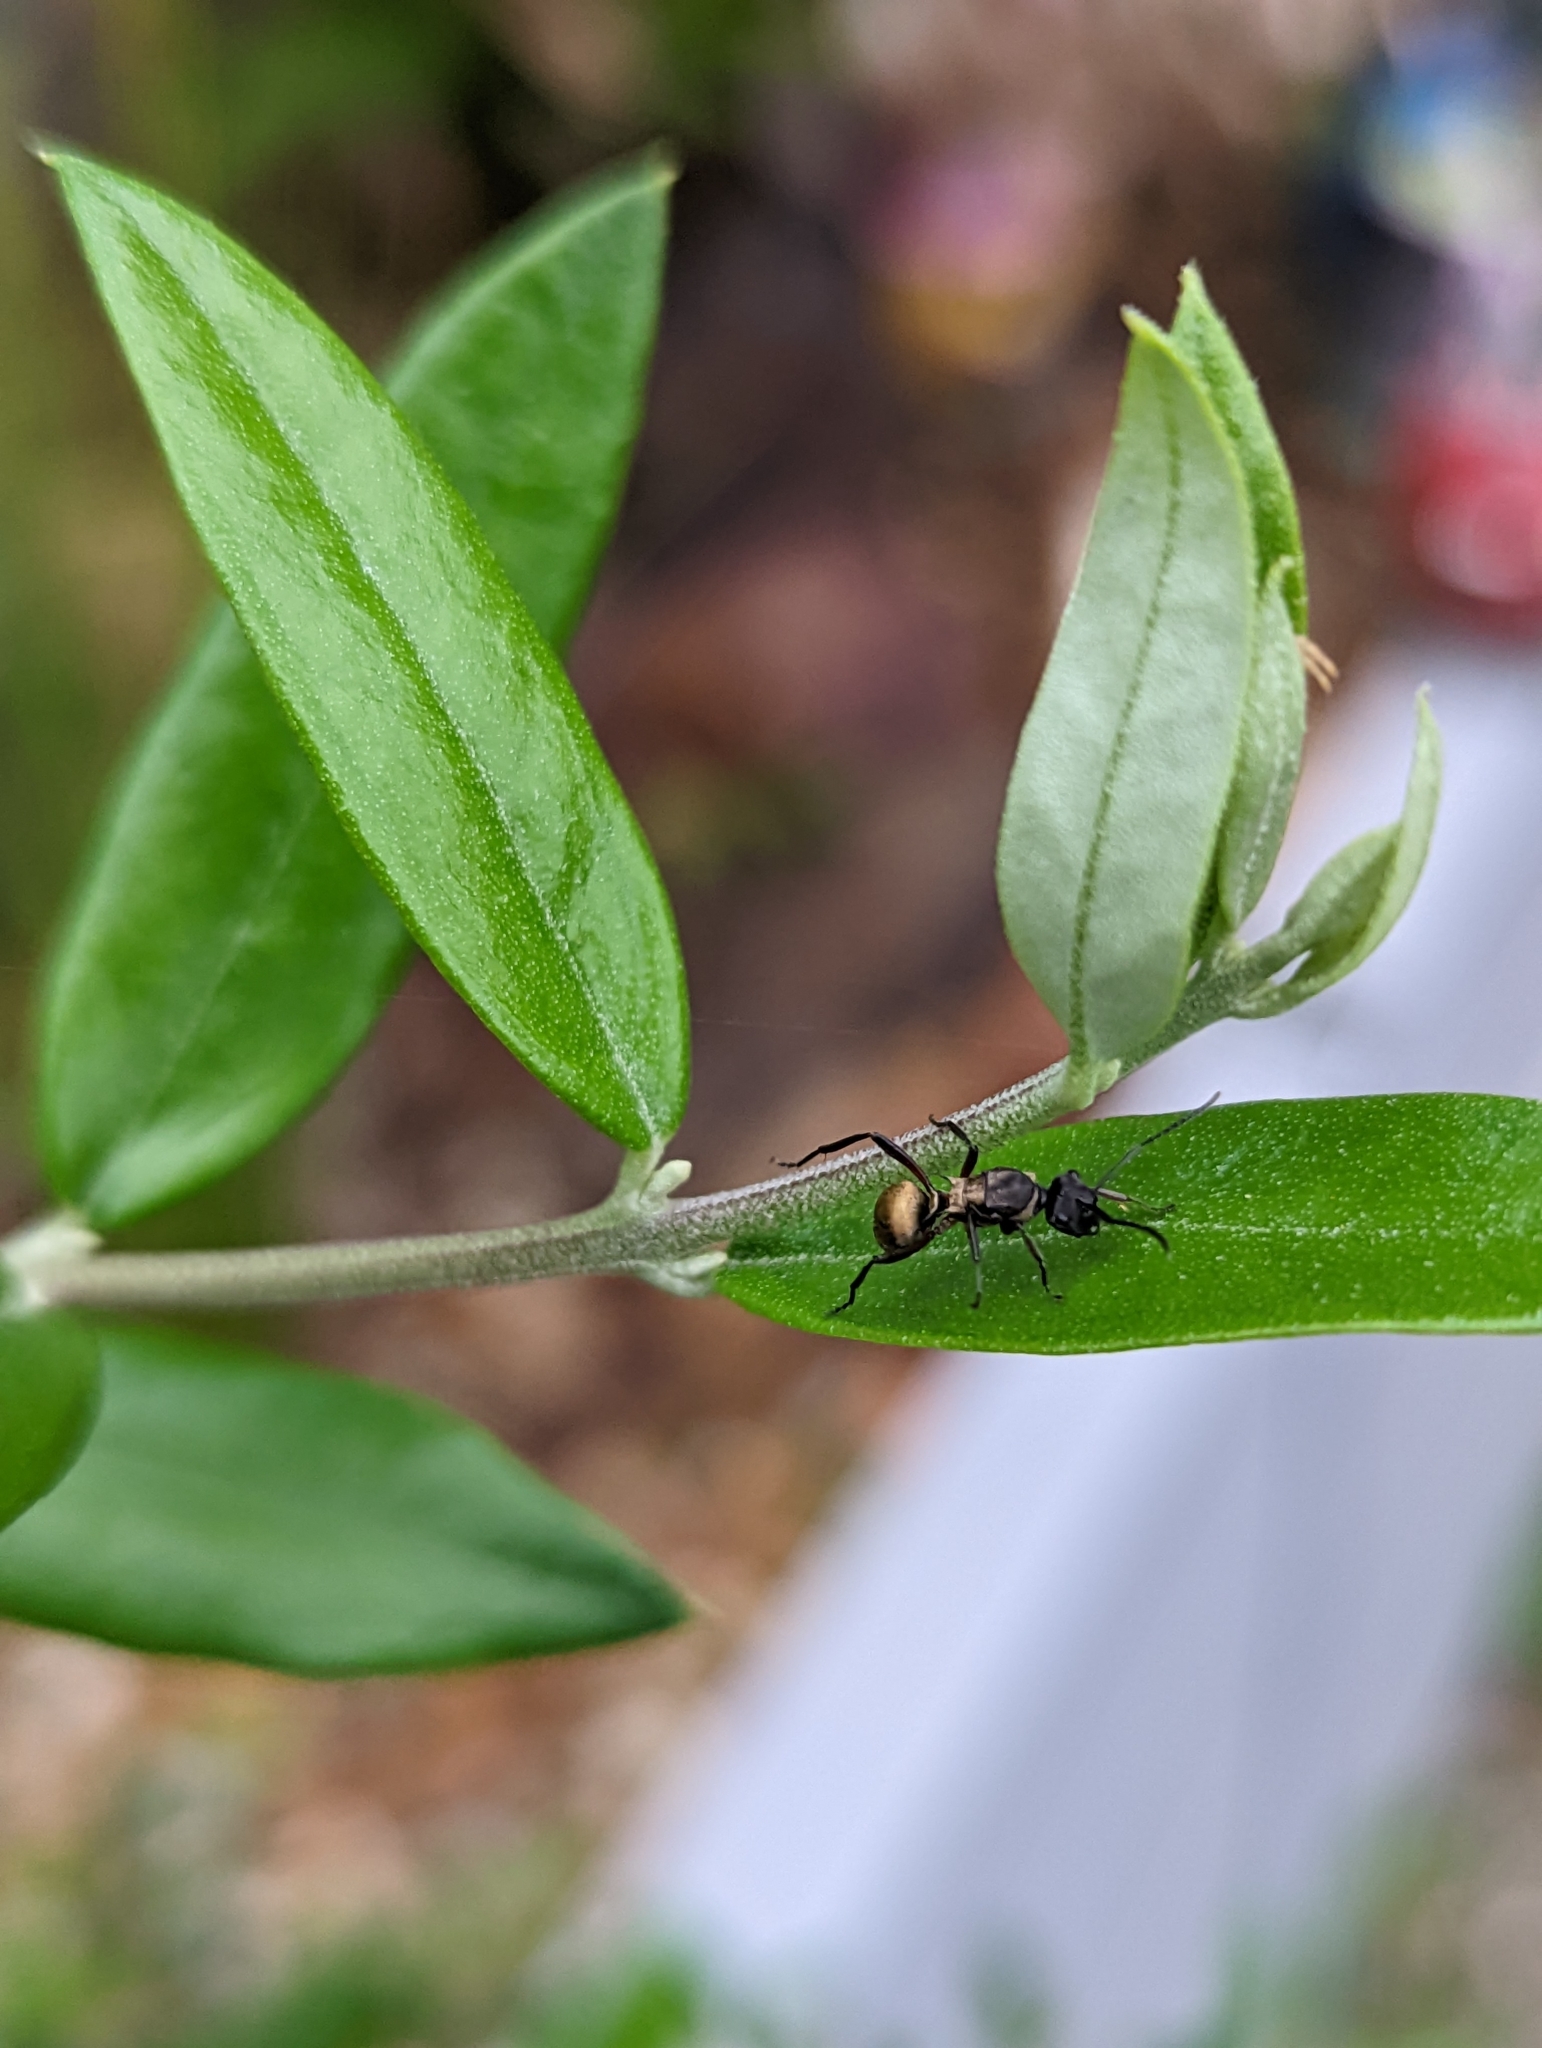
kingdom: Animalia
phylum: Arthropoda
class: Insecta
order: Hymenoptera
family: Formicidae
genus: Polyrhachis
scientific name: Polyrhachis rufifemur
